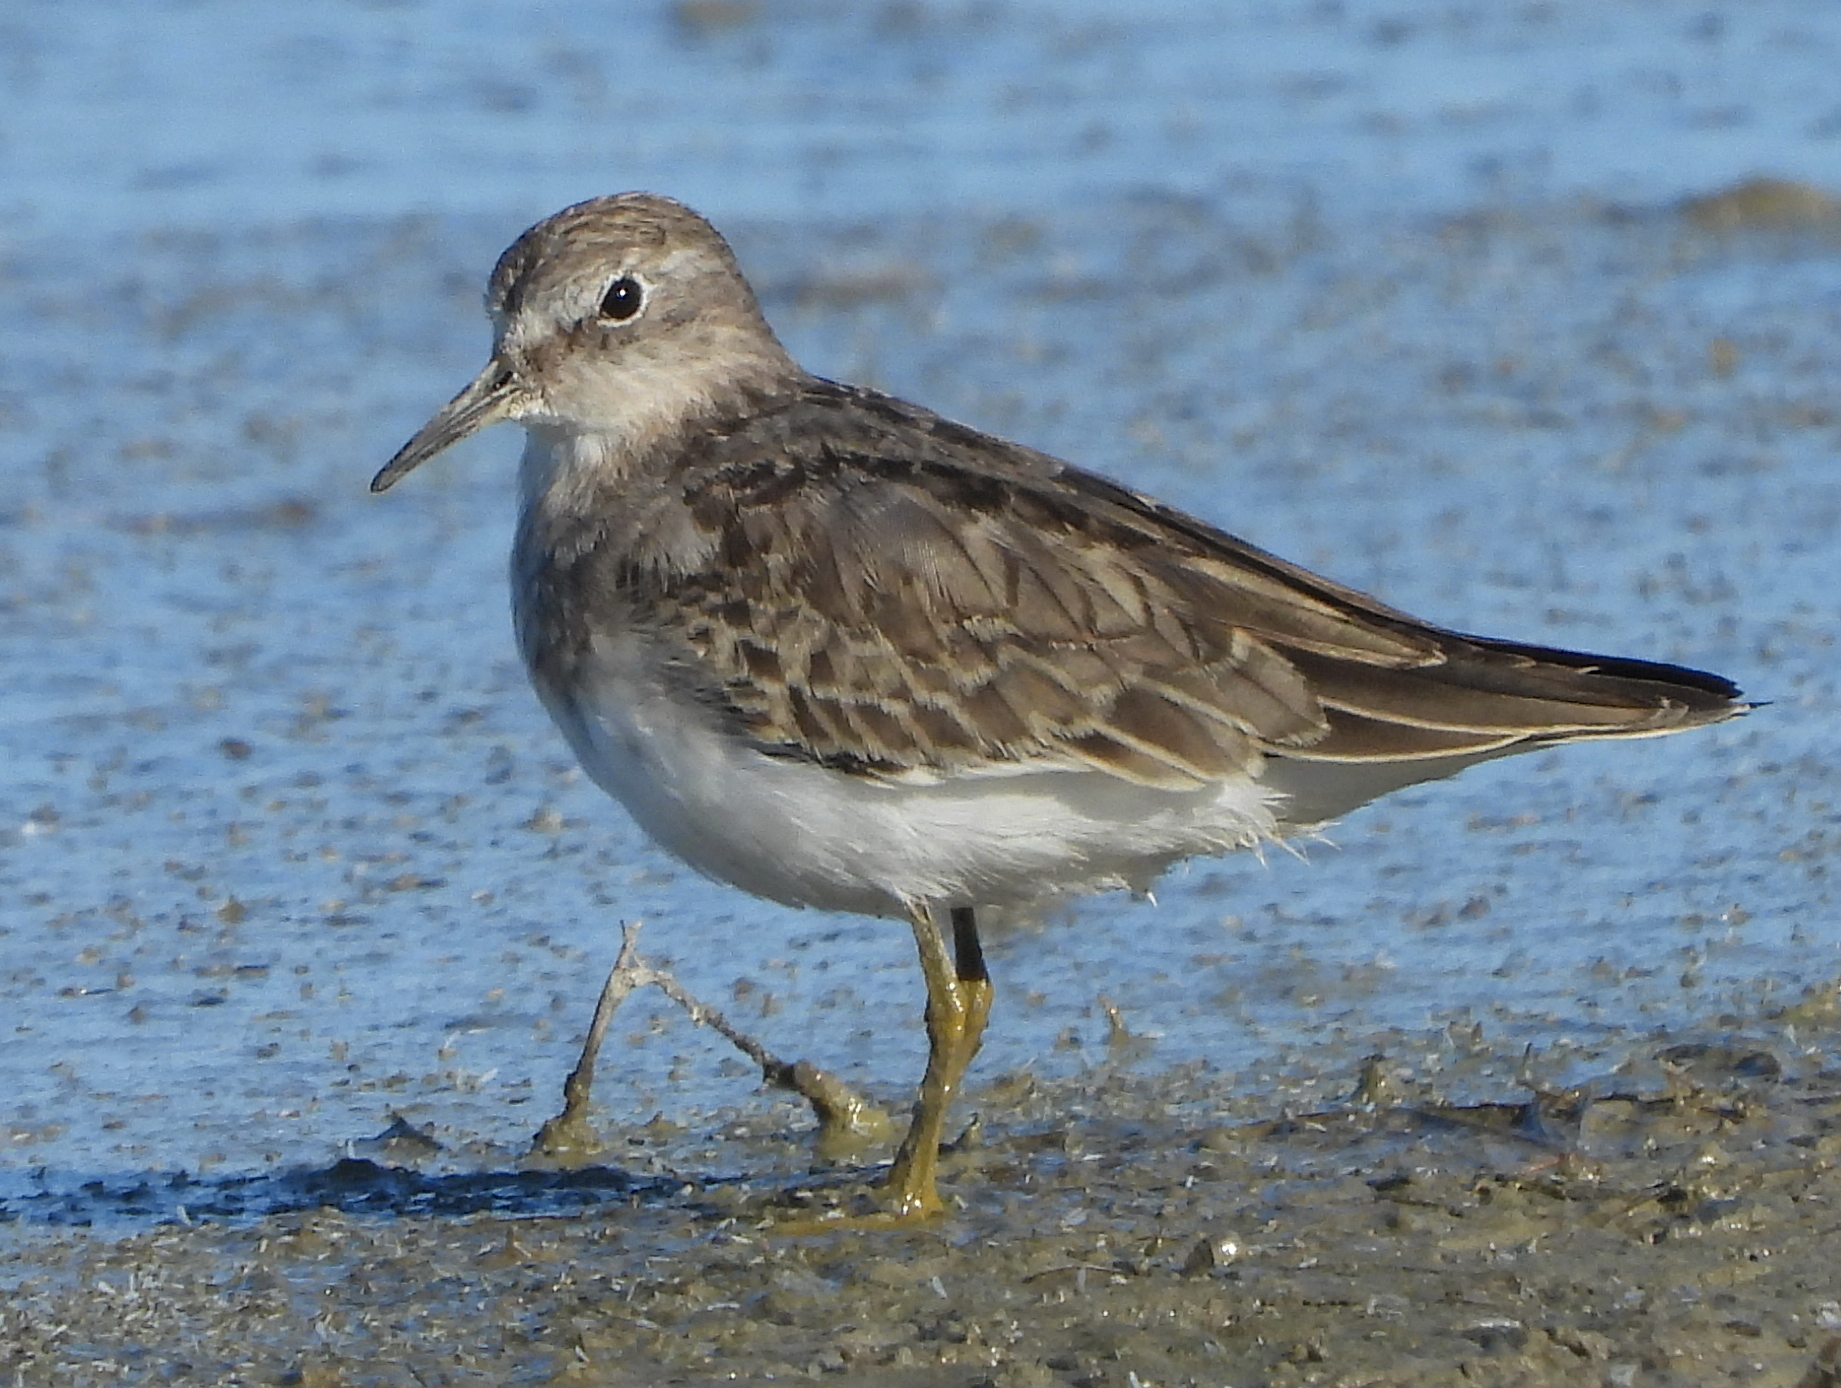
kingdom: Animalia
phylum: Chordata
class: Aves
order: Charadriiformes
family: Scolopacidae
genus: Calidris
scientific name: Calidris temminckii
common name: Temminck's stint
